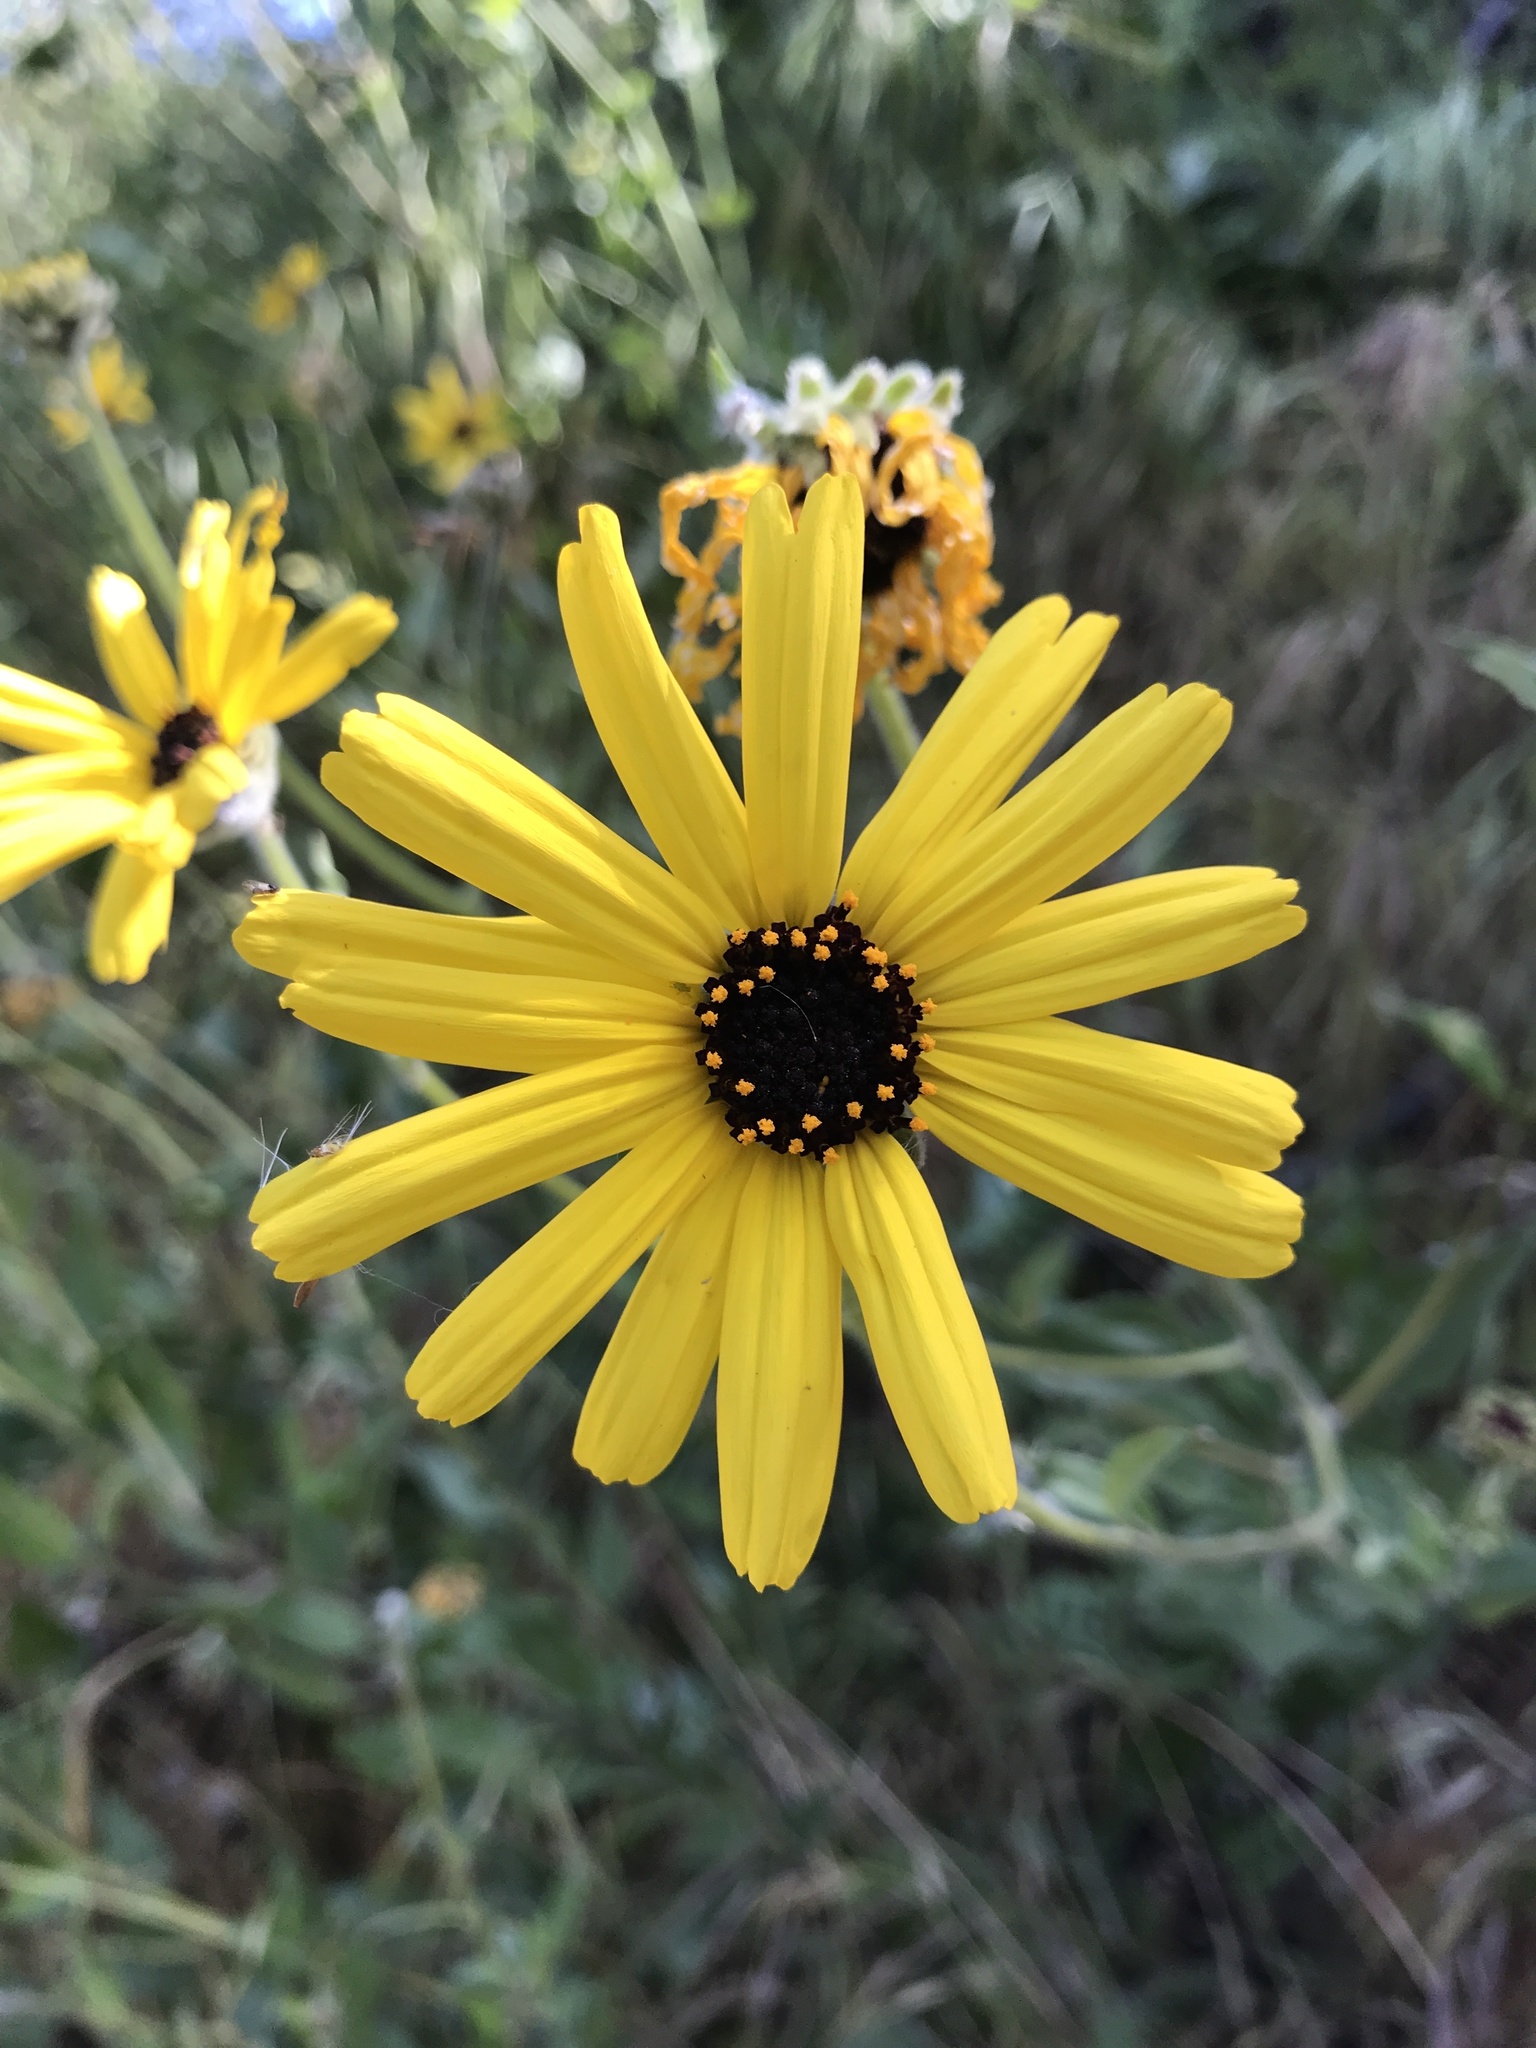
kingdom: Plantae
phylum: Tracheophyta
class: Magnoliopsida
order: Asterales
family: Asteraceae
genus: Encelia
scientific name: Encelia californica
